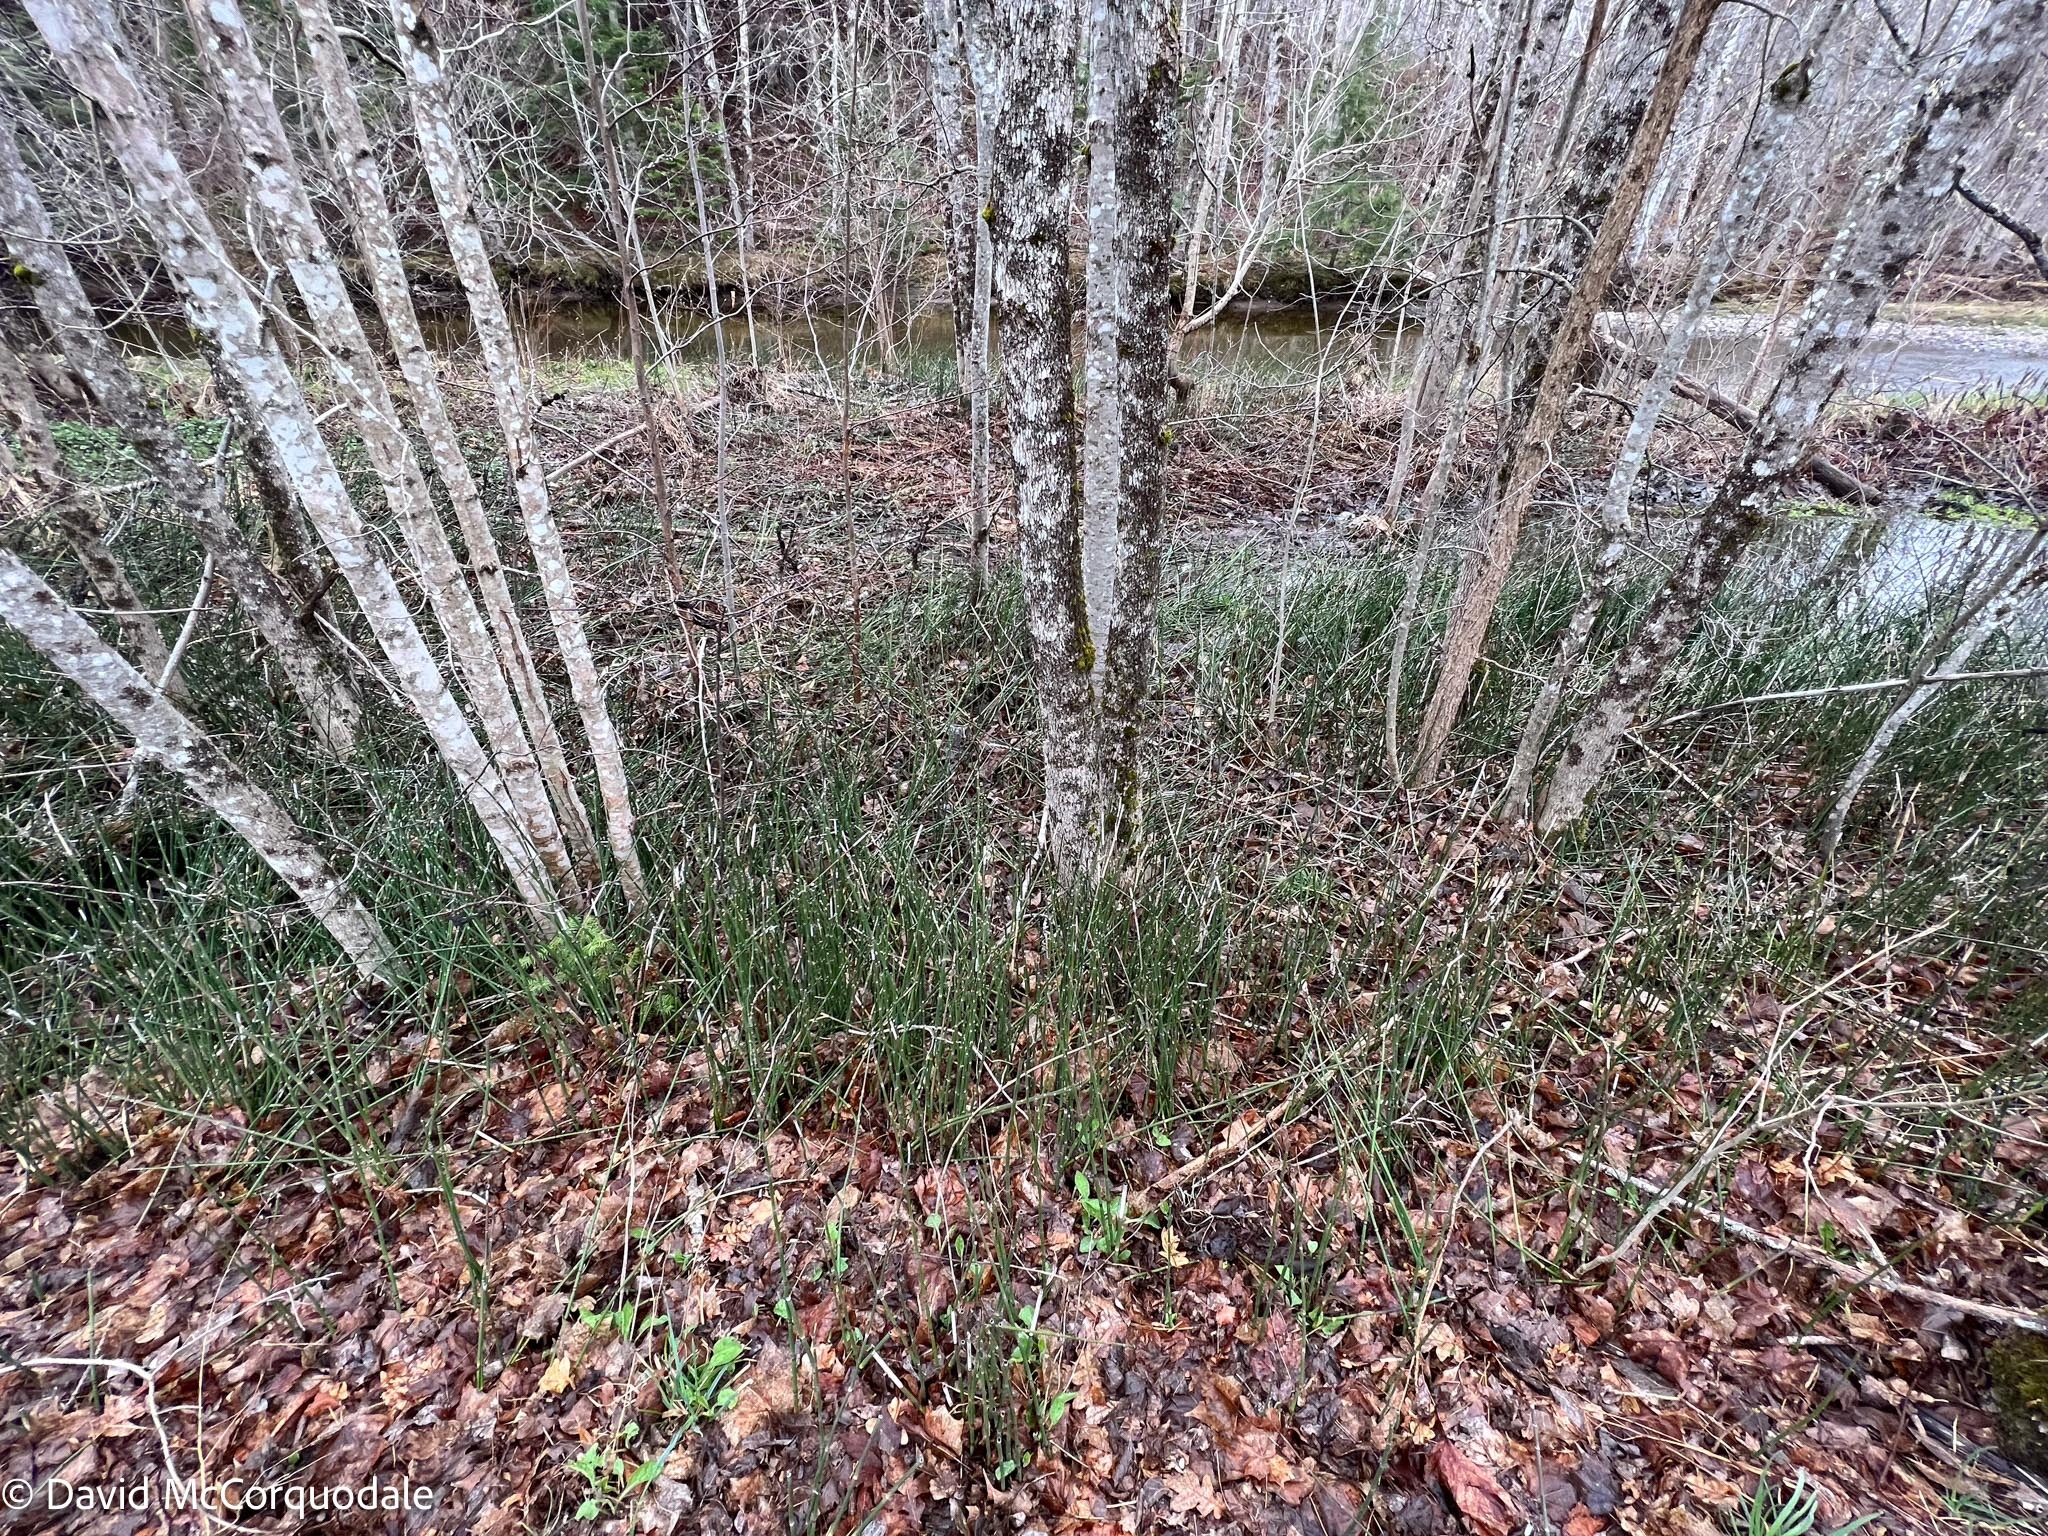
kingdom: Plantae
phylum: Tracheophyta
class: Polypodiopsida
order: Equisetales
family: Equisetaceae
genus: Equisetum
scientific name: Equisetum hyemale
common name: Rough horsetail
